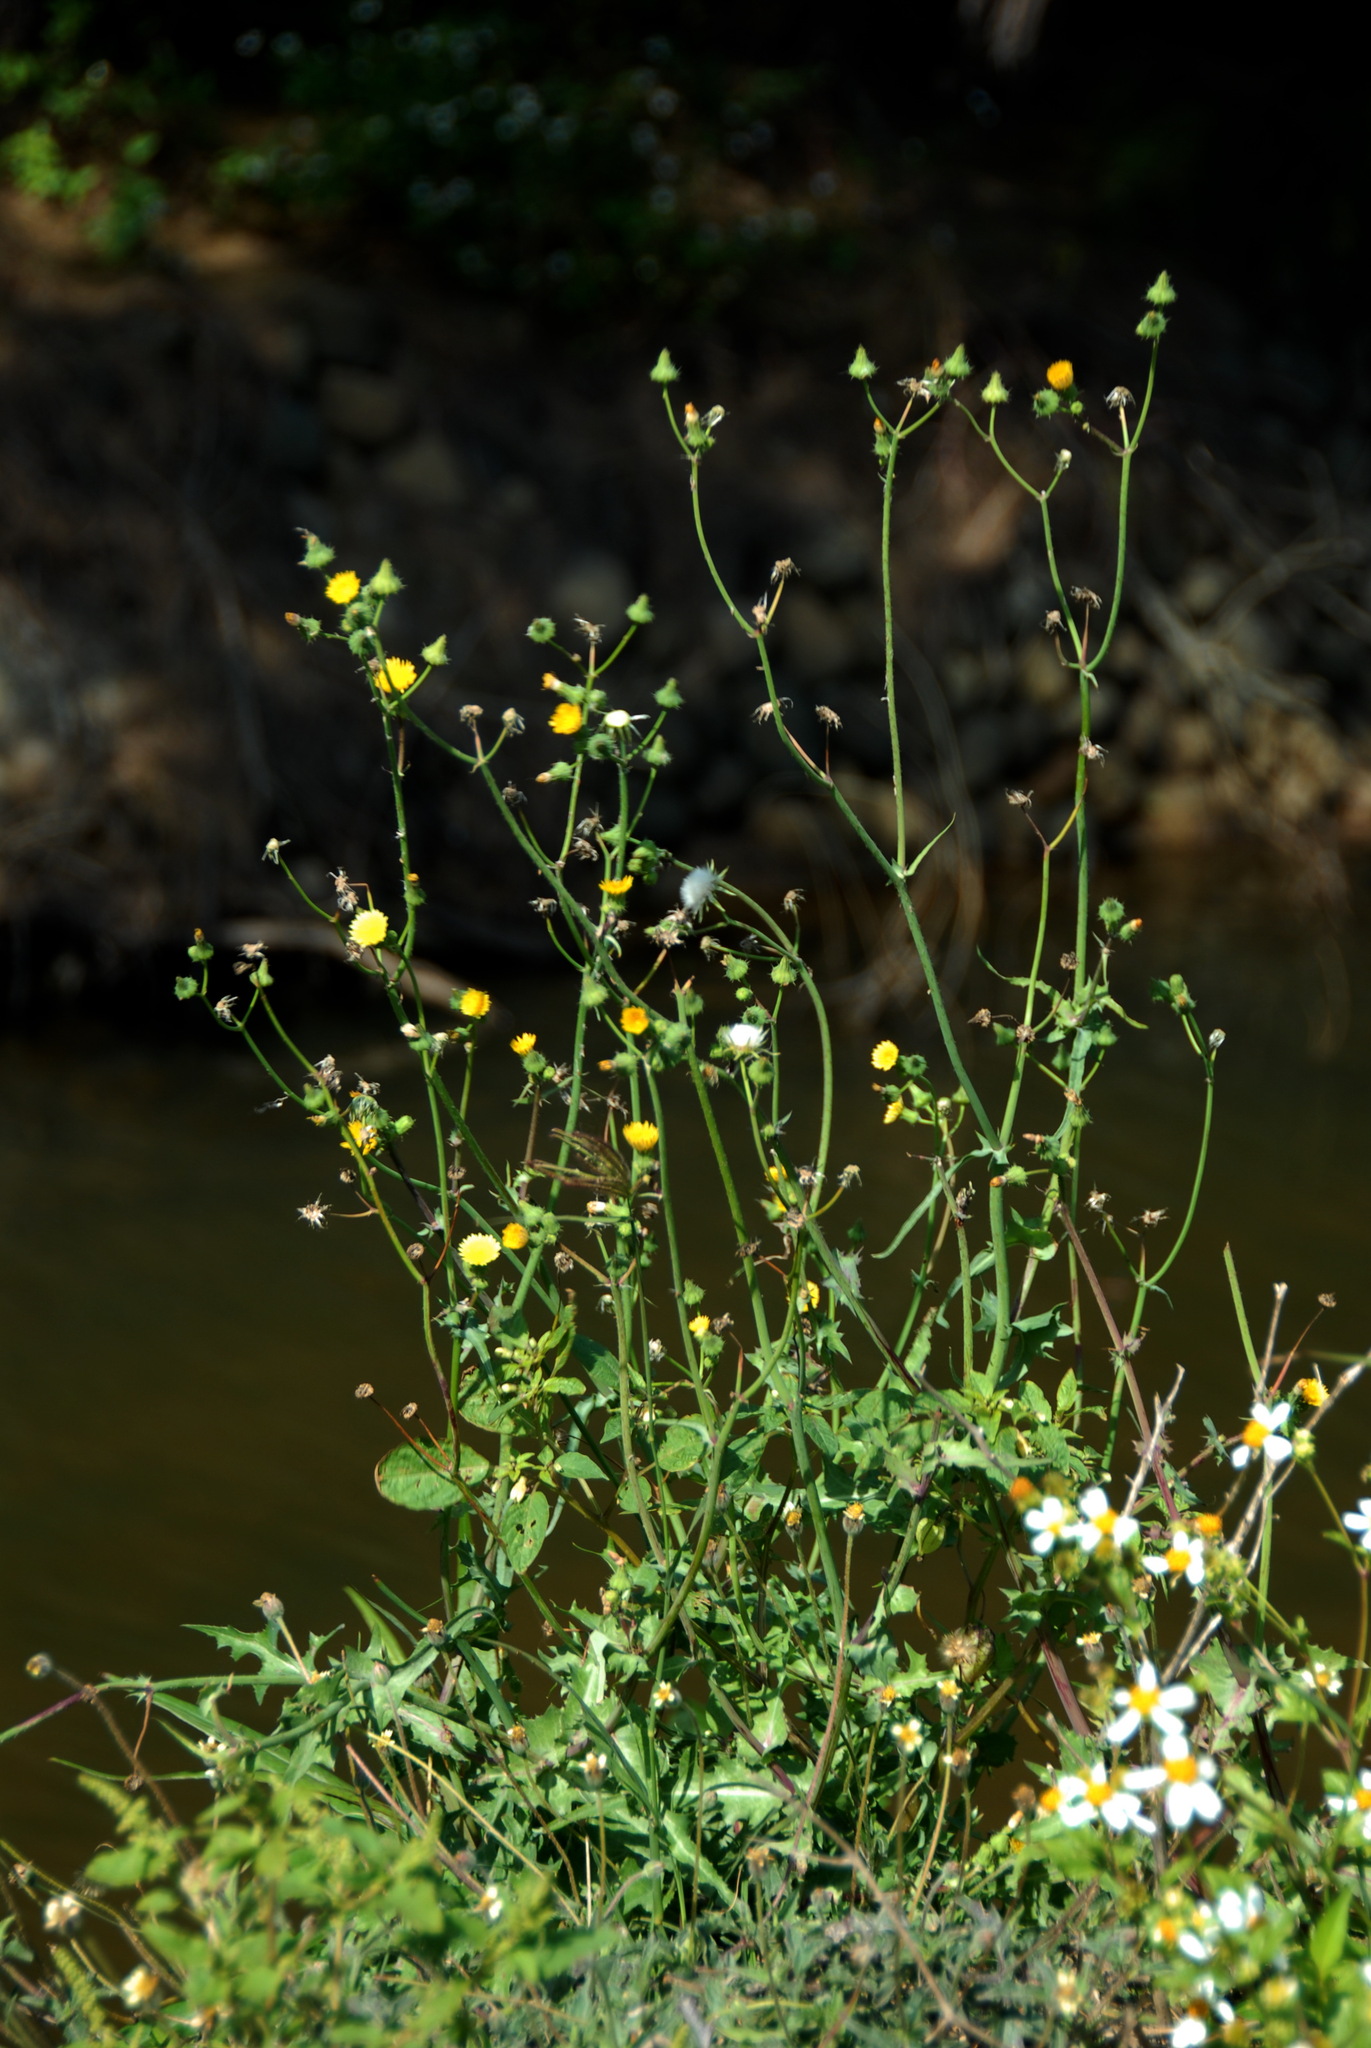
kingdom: Plantae
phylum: Tracheophyta
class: Magnoliopsida
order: Asterales
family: Asteraceae
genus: Sonchus
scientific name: Sonchus oleraceus
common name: Common sowthistle
